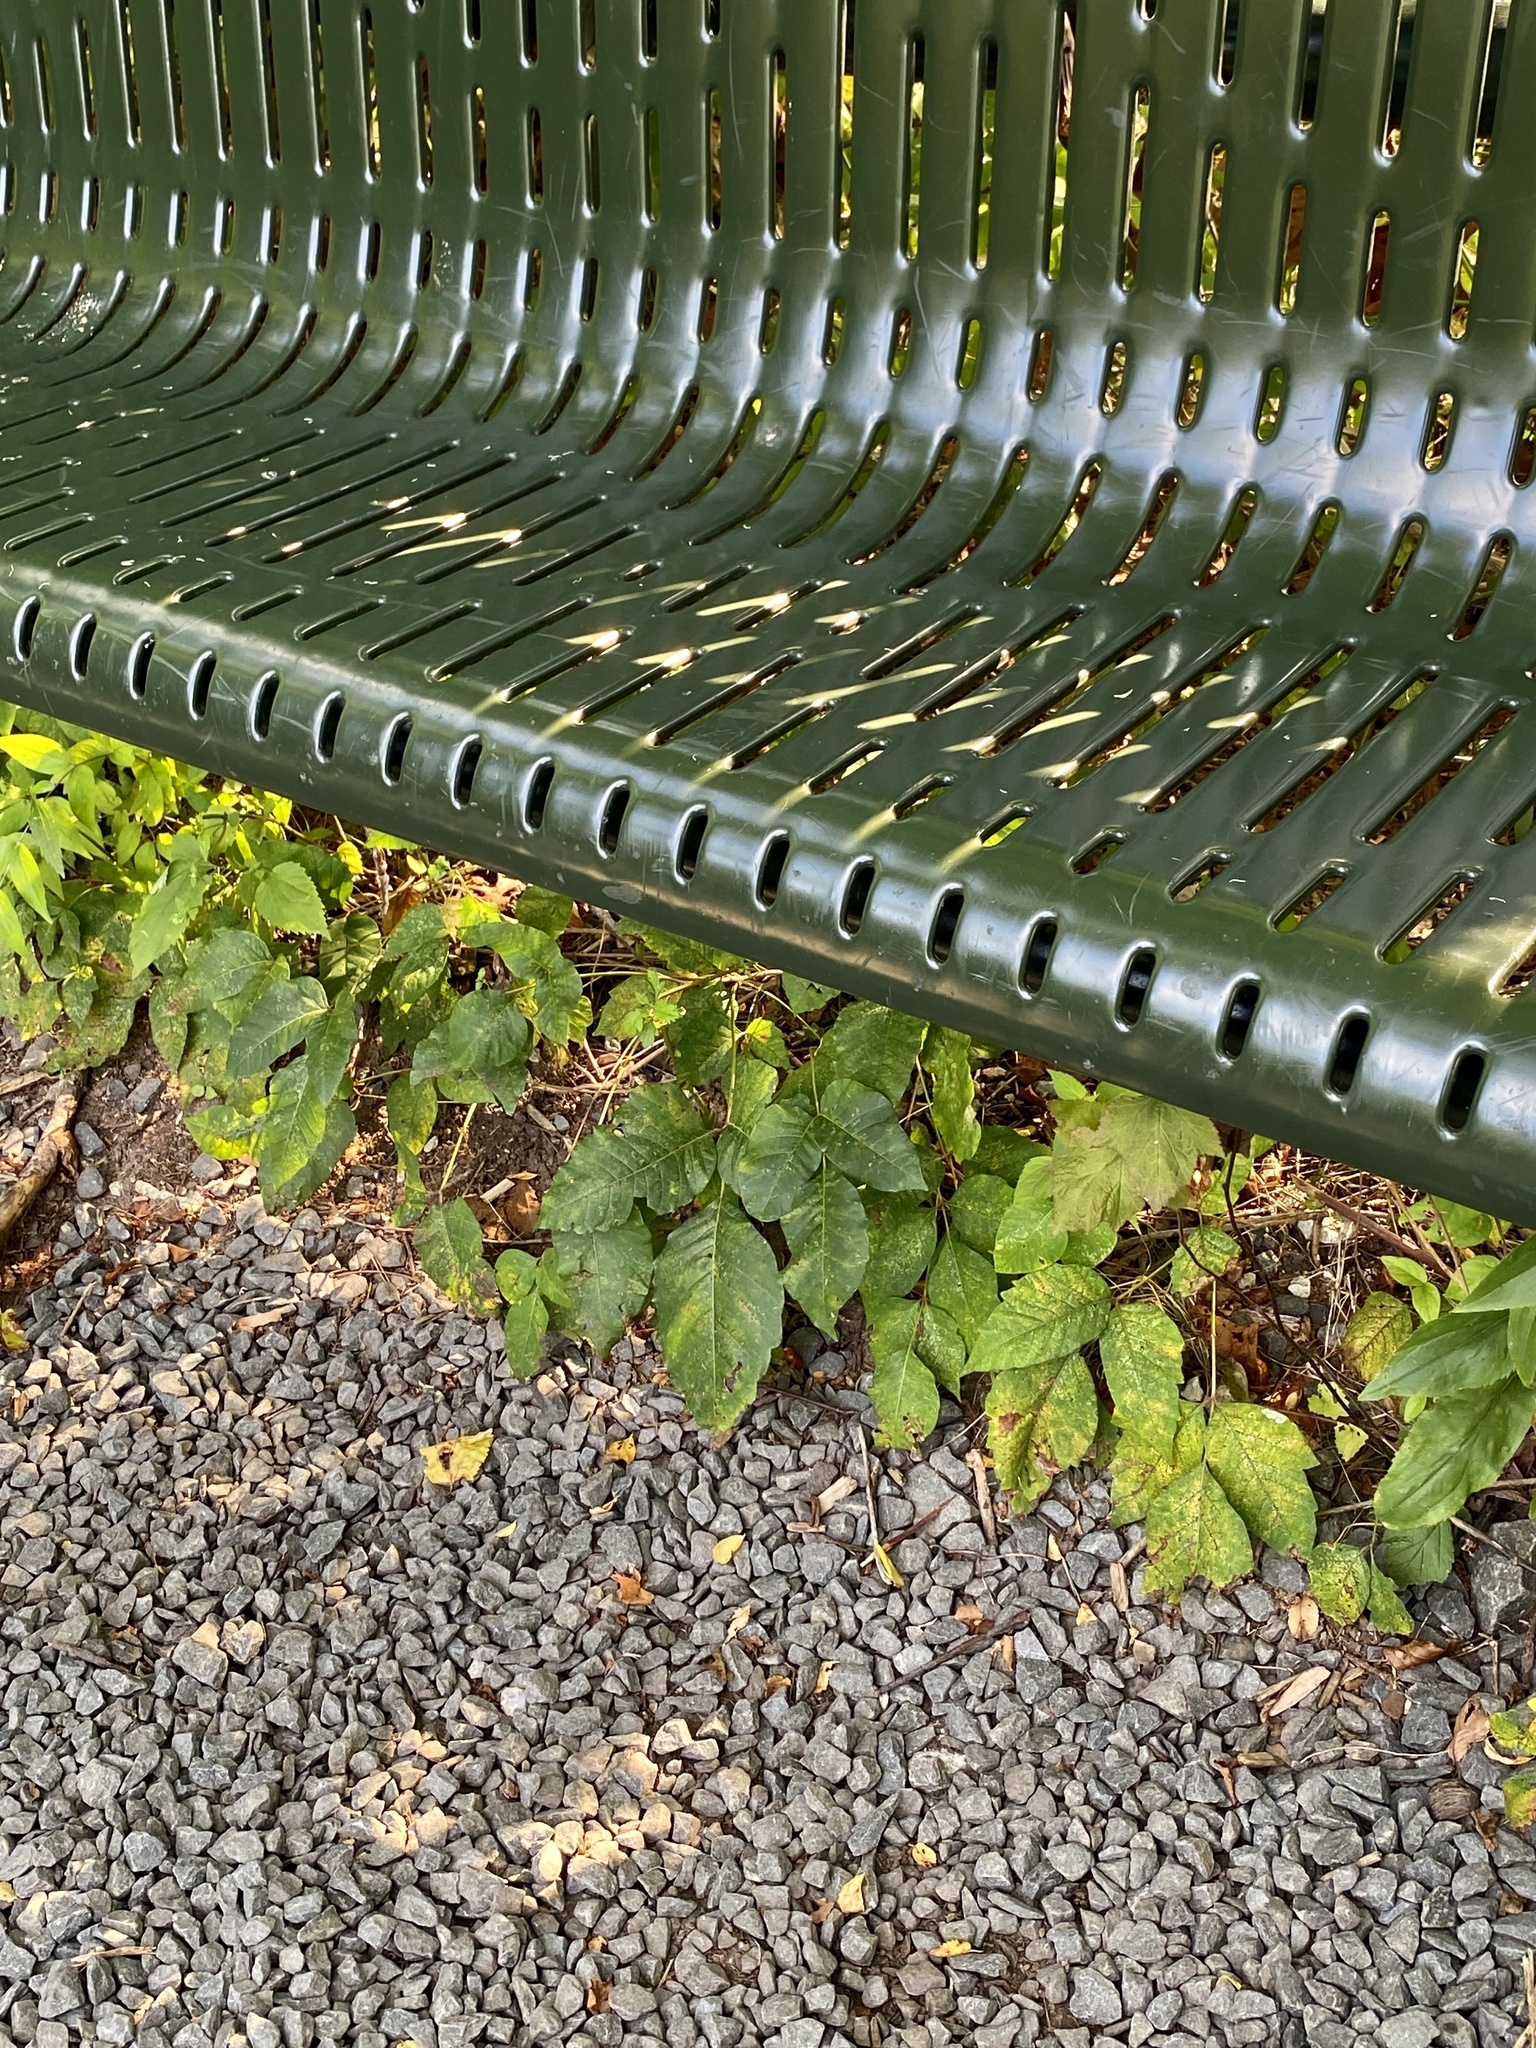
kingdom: Plantae
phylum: Tracheophyta
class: Magnoliopsida
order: Sapindales
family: Anacardiaceae
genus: Toxicodendron
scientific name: Toxicodendron radicans
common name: Poison ivy
